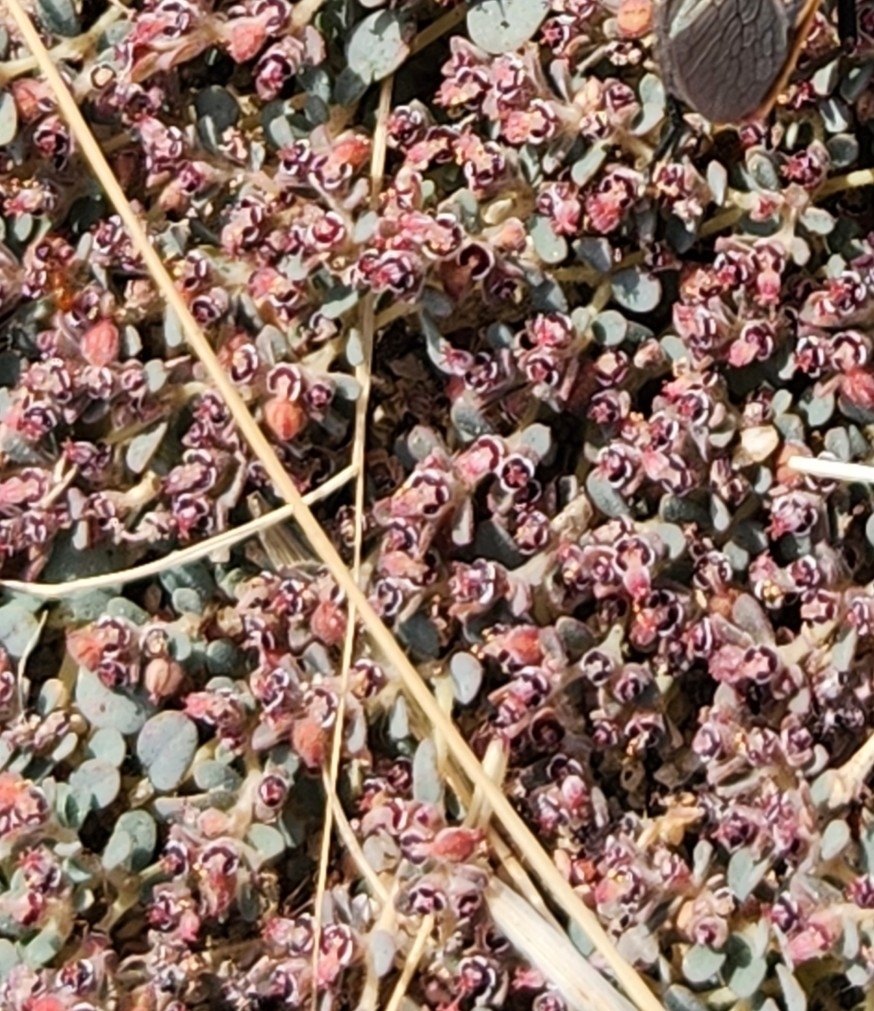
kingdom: Plantae
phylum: Tracheophyta
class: Magnoliopsida
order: Malpighiales
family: Euphorbiaceae
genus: Euphorbia
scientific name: Euphorbia polycarpa
